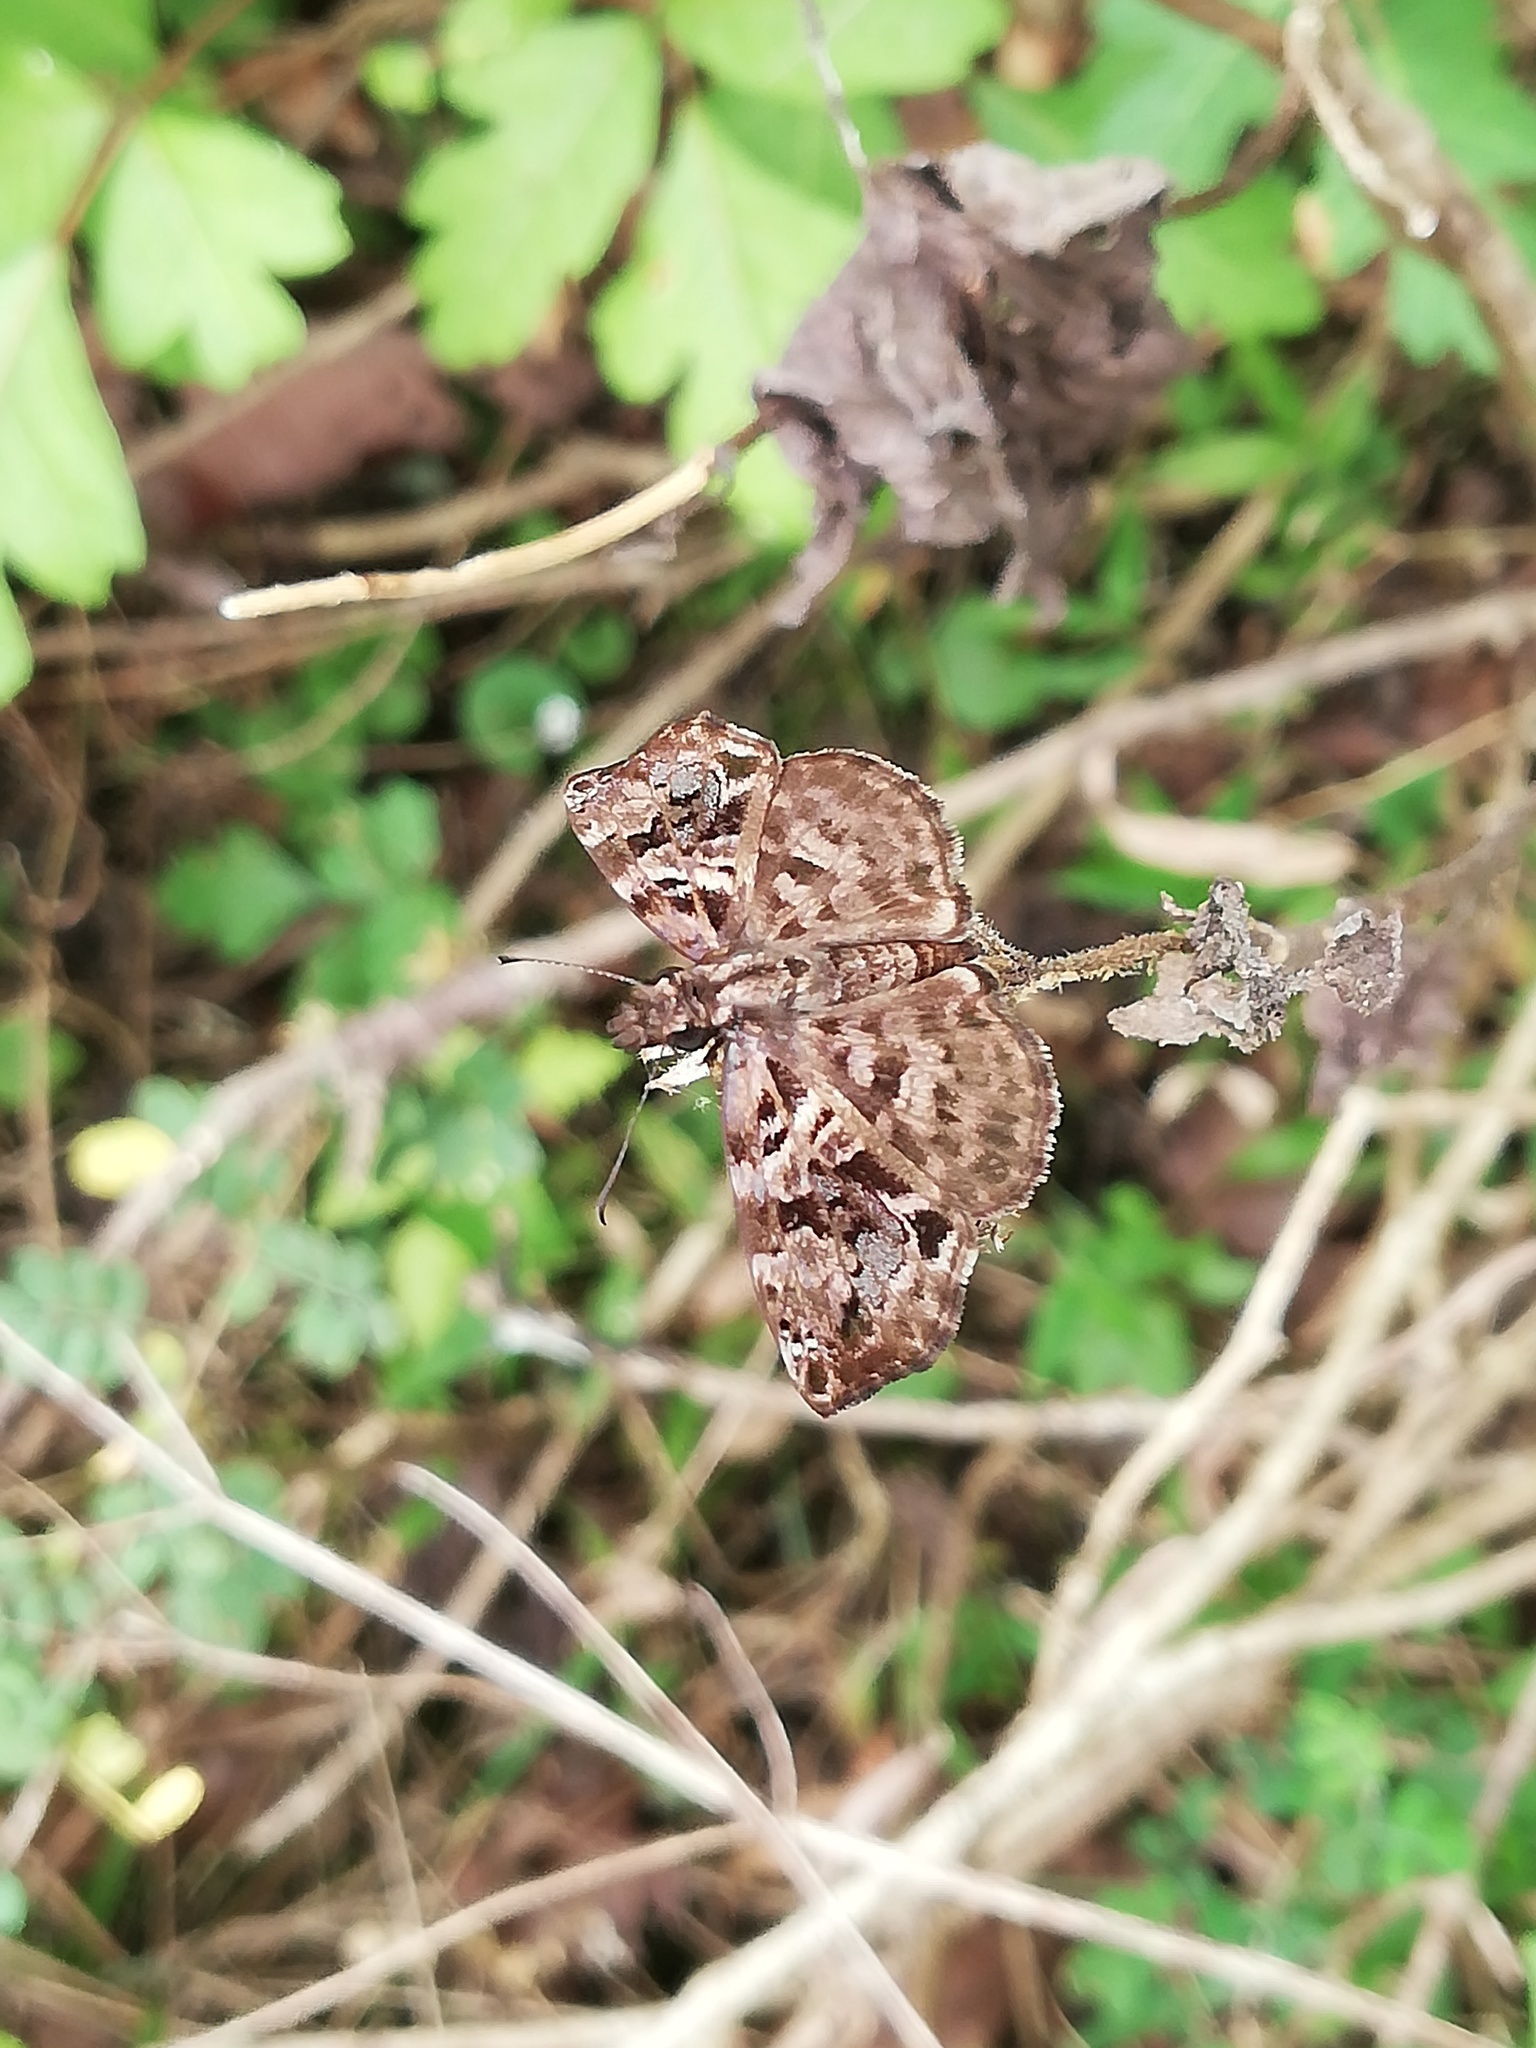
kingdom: Animalia
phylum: Arthropoda
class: Insecta
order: Lepidoptera
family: Hesperiidae
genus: Gorgythion
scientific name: Gorgythion begga
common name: Variegated skipper
